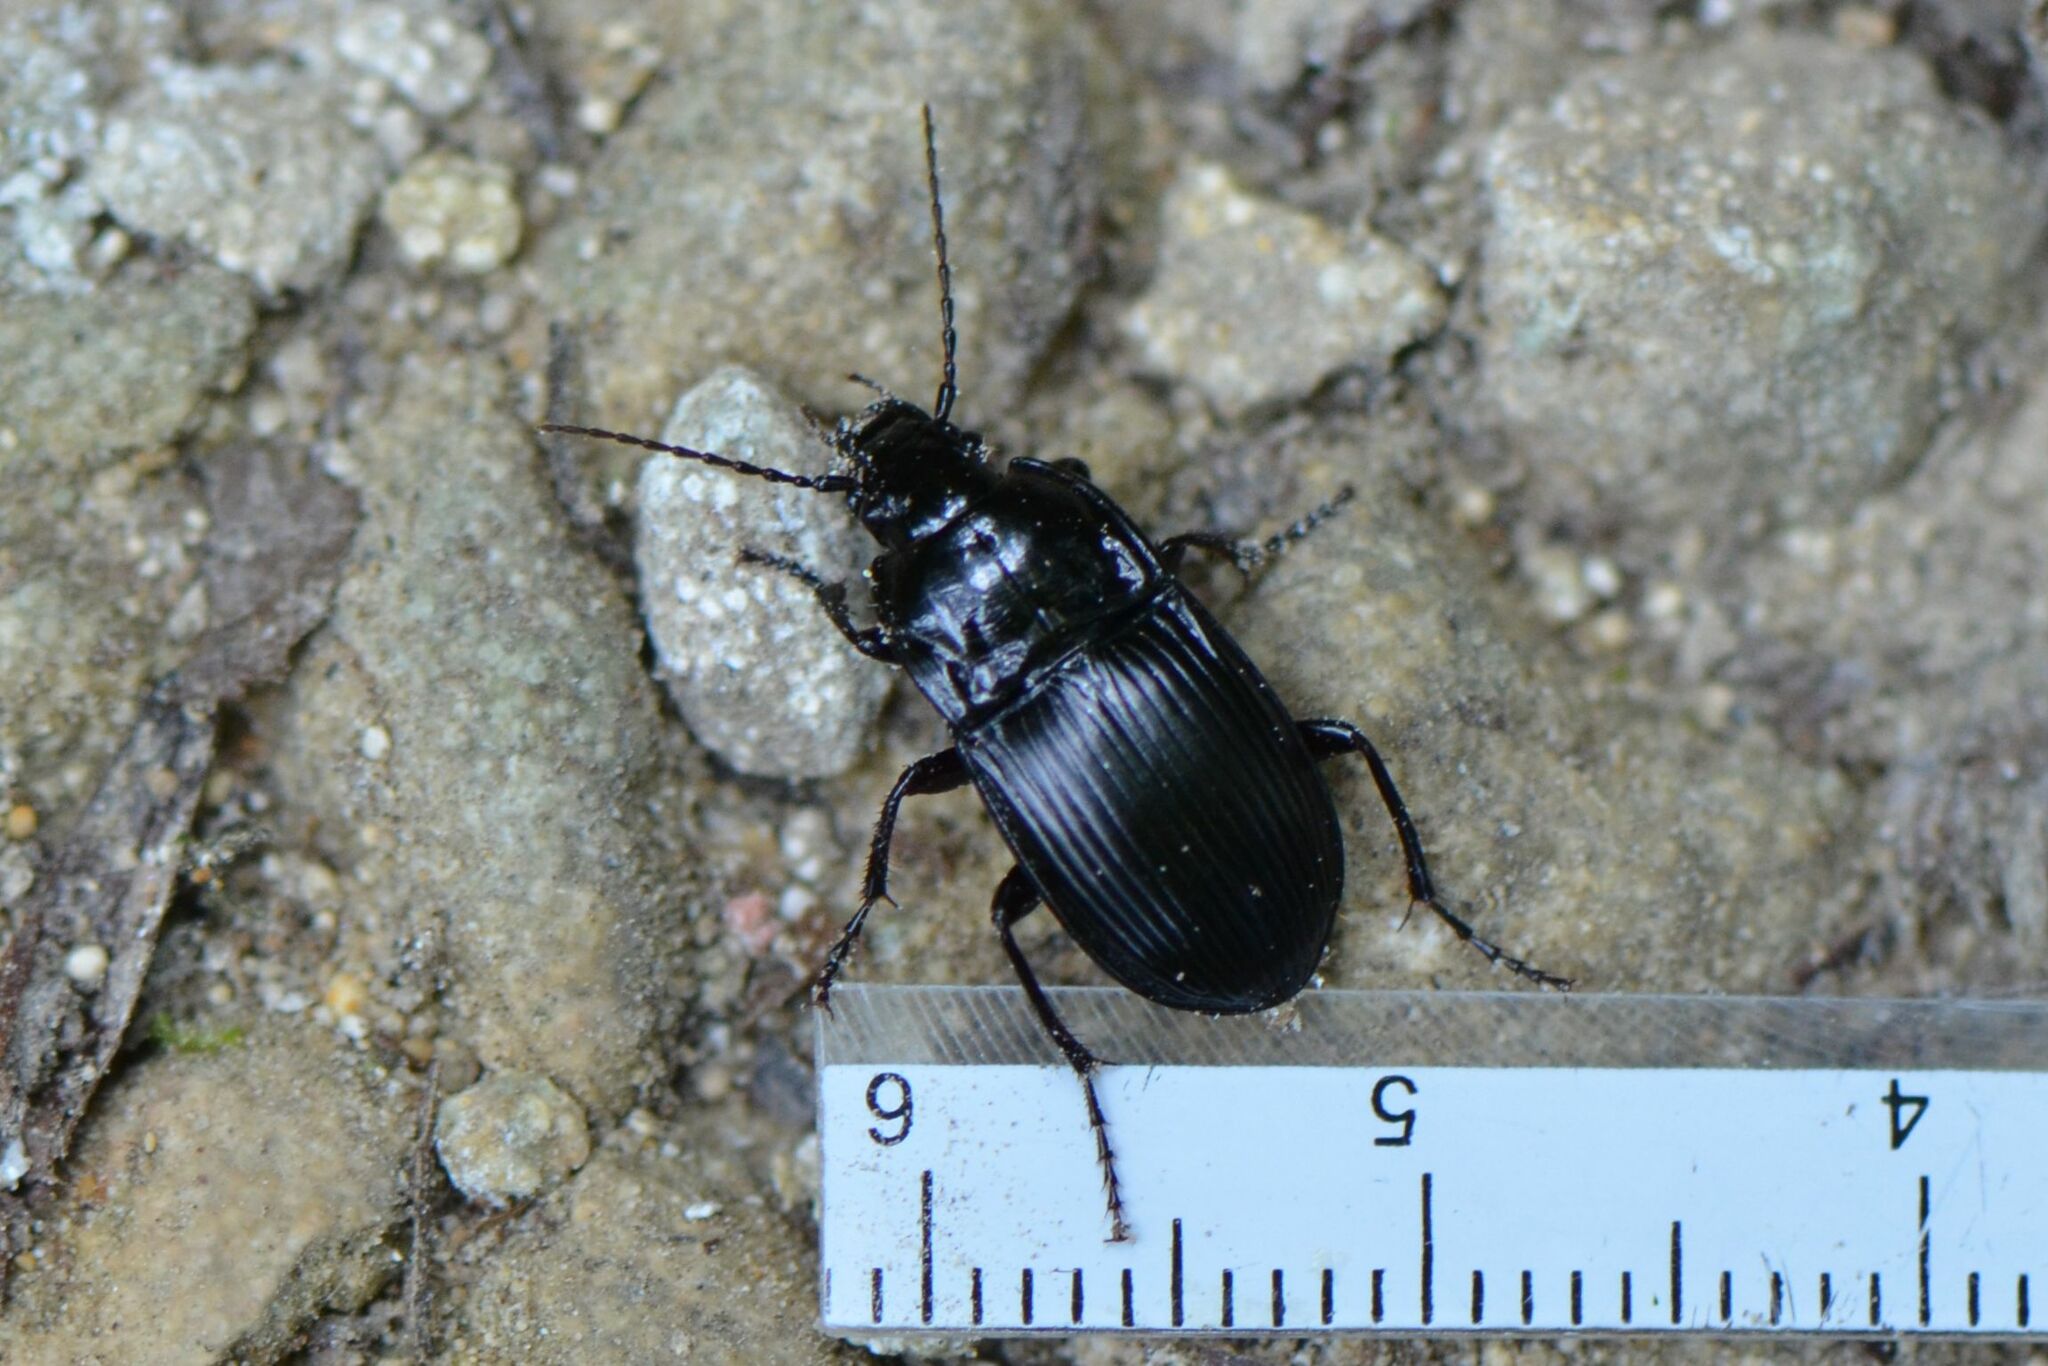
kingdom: Animalia
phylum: Arthropoda
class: Insecta
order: Coleoptera
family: Carabidae
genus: Abax
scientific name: Abax ovalis
